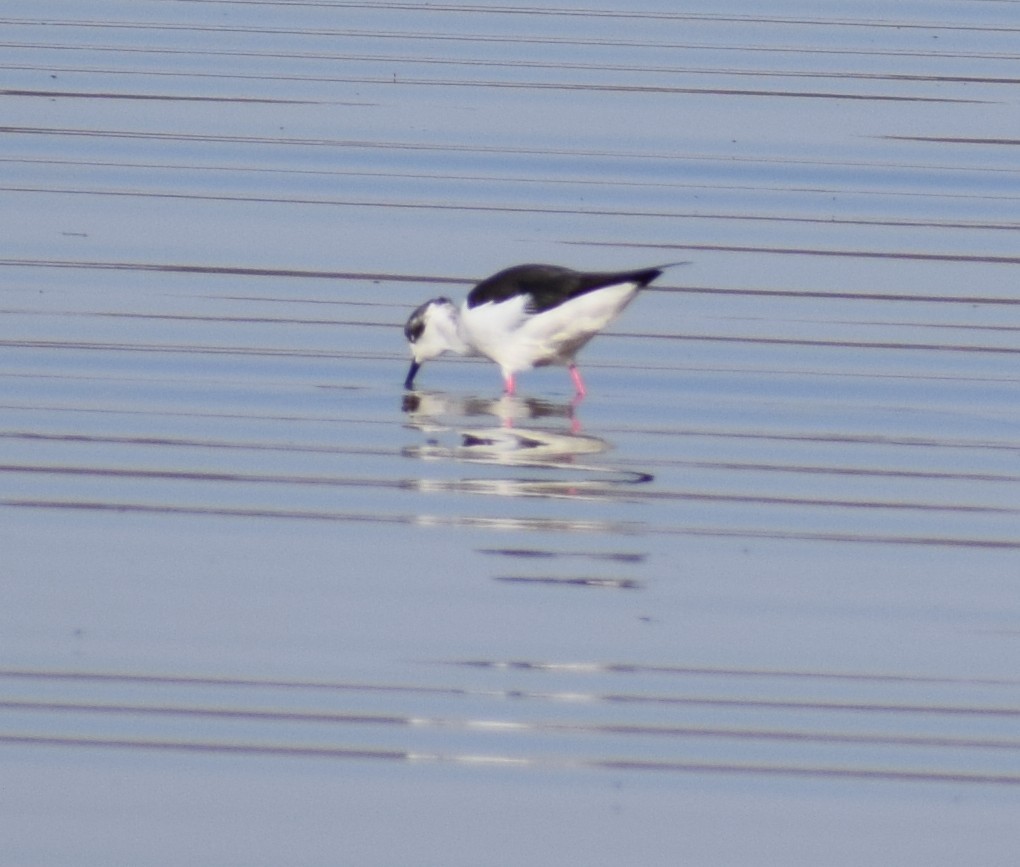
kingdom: Animalia
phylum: Chordata
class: Aves
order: Charadriiformes
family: Recurvirostridae
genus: Himantopus
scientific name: Himantopus himantopus
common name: Black-winged stilt
